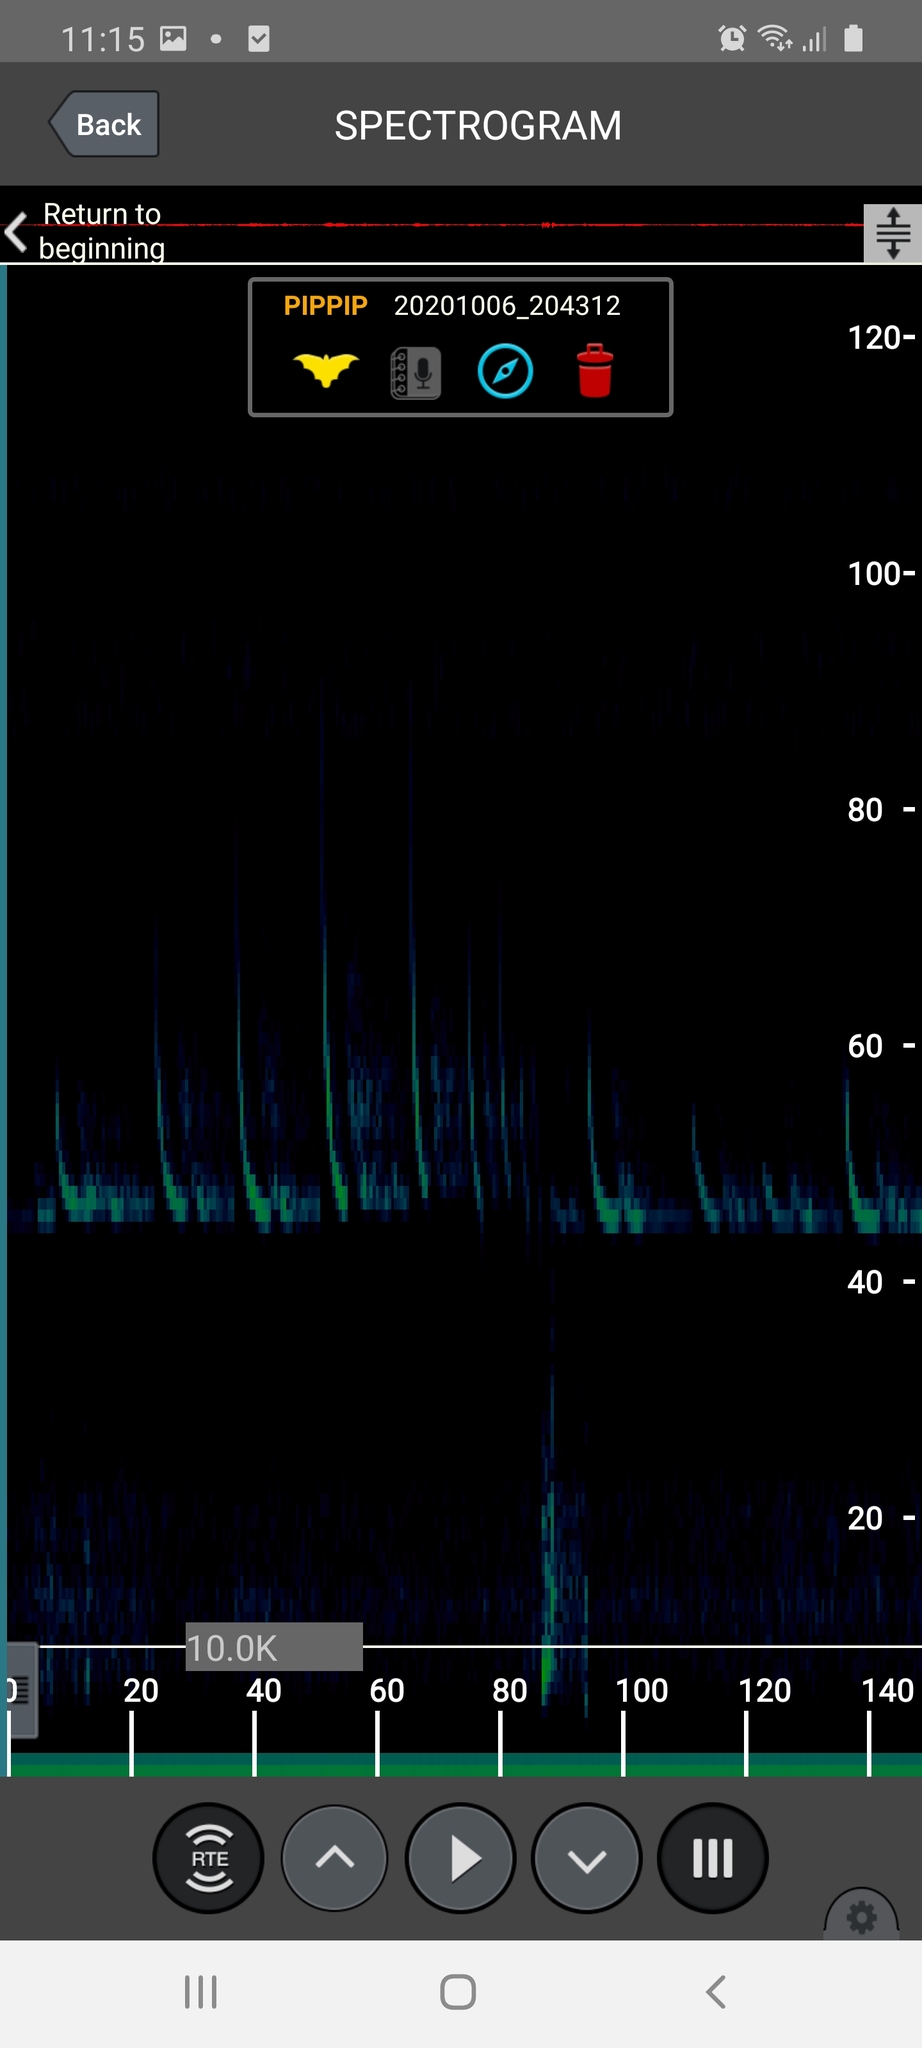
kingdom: Animalia
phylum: Chordata
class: Mammalia
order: Chiroptera
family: Vespertilionidae
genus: Pipistrellus
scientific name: Pipistrellus pipistrellus
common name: Common pipistrelle
